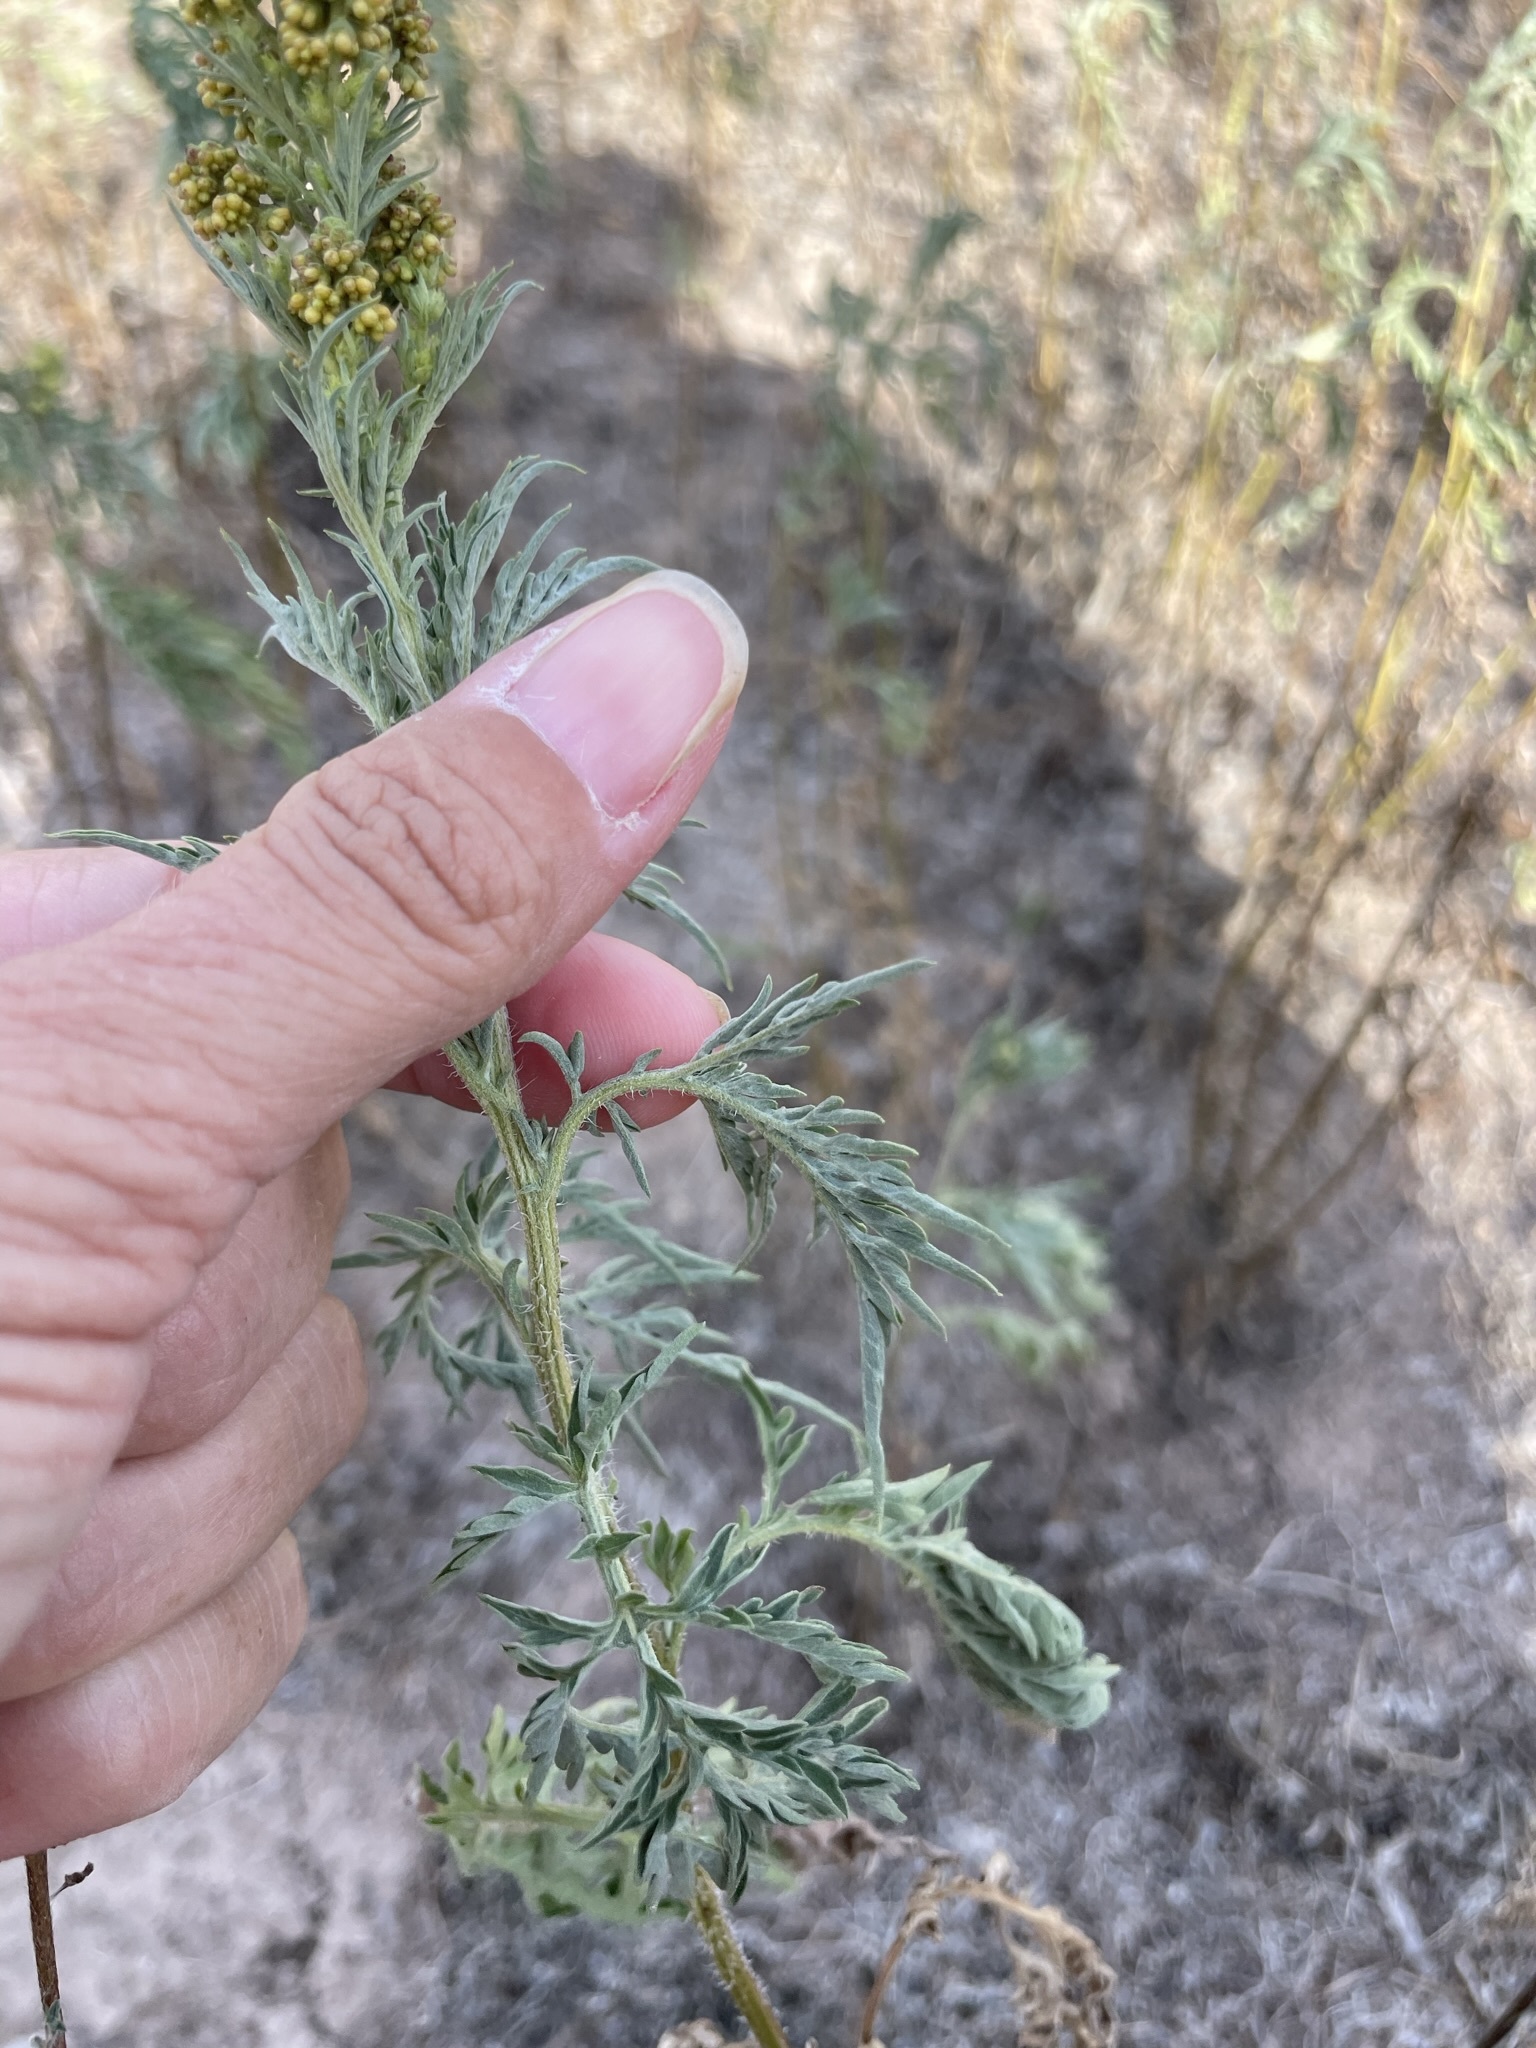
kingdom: Plantae
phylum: Tracheophyta
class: Magnoliopsida
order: Asterales
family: Asteraceae
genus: Ambrosia
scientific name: Ambrosia confertiflora
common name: Bur ragweed
